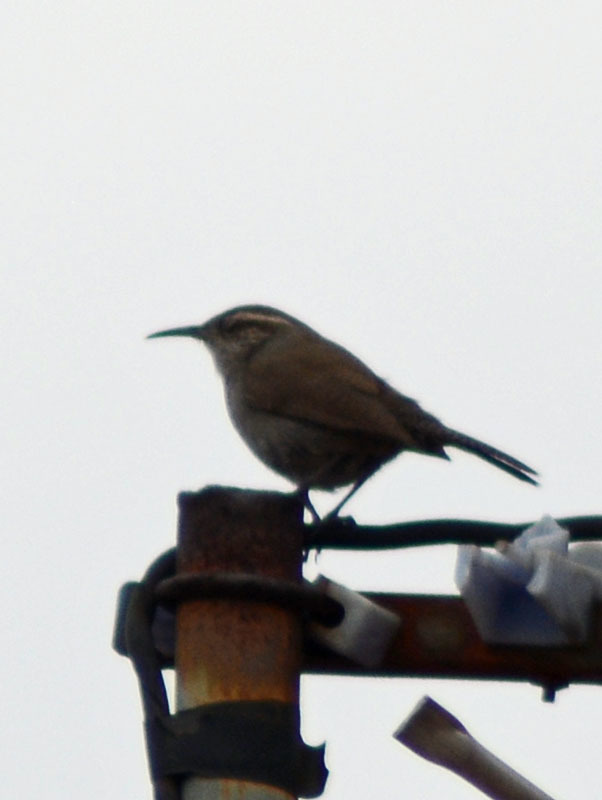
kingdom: Animalia
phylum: Chordata
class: Aves
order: Passeriformes
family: Troglodytidae
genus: Thryomanes
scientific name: Thryomanes bewickii
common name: Bewick's wren
